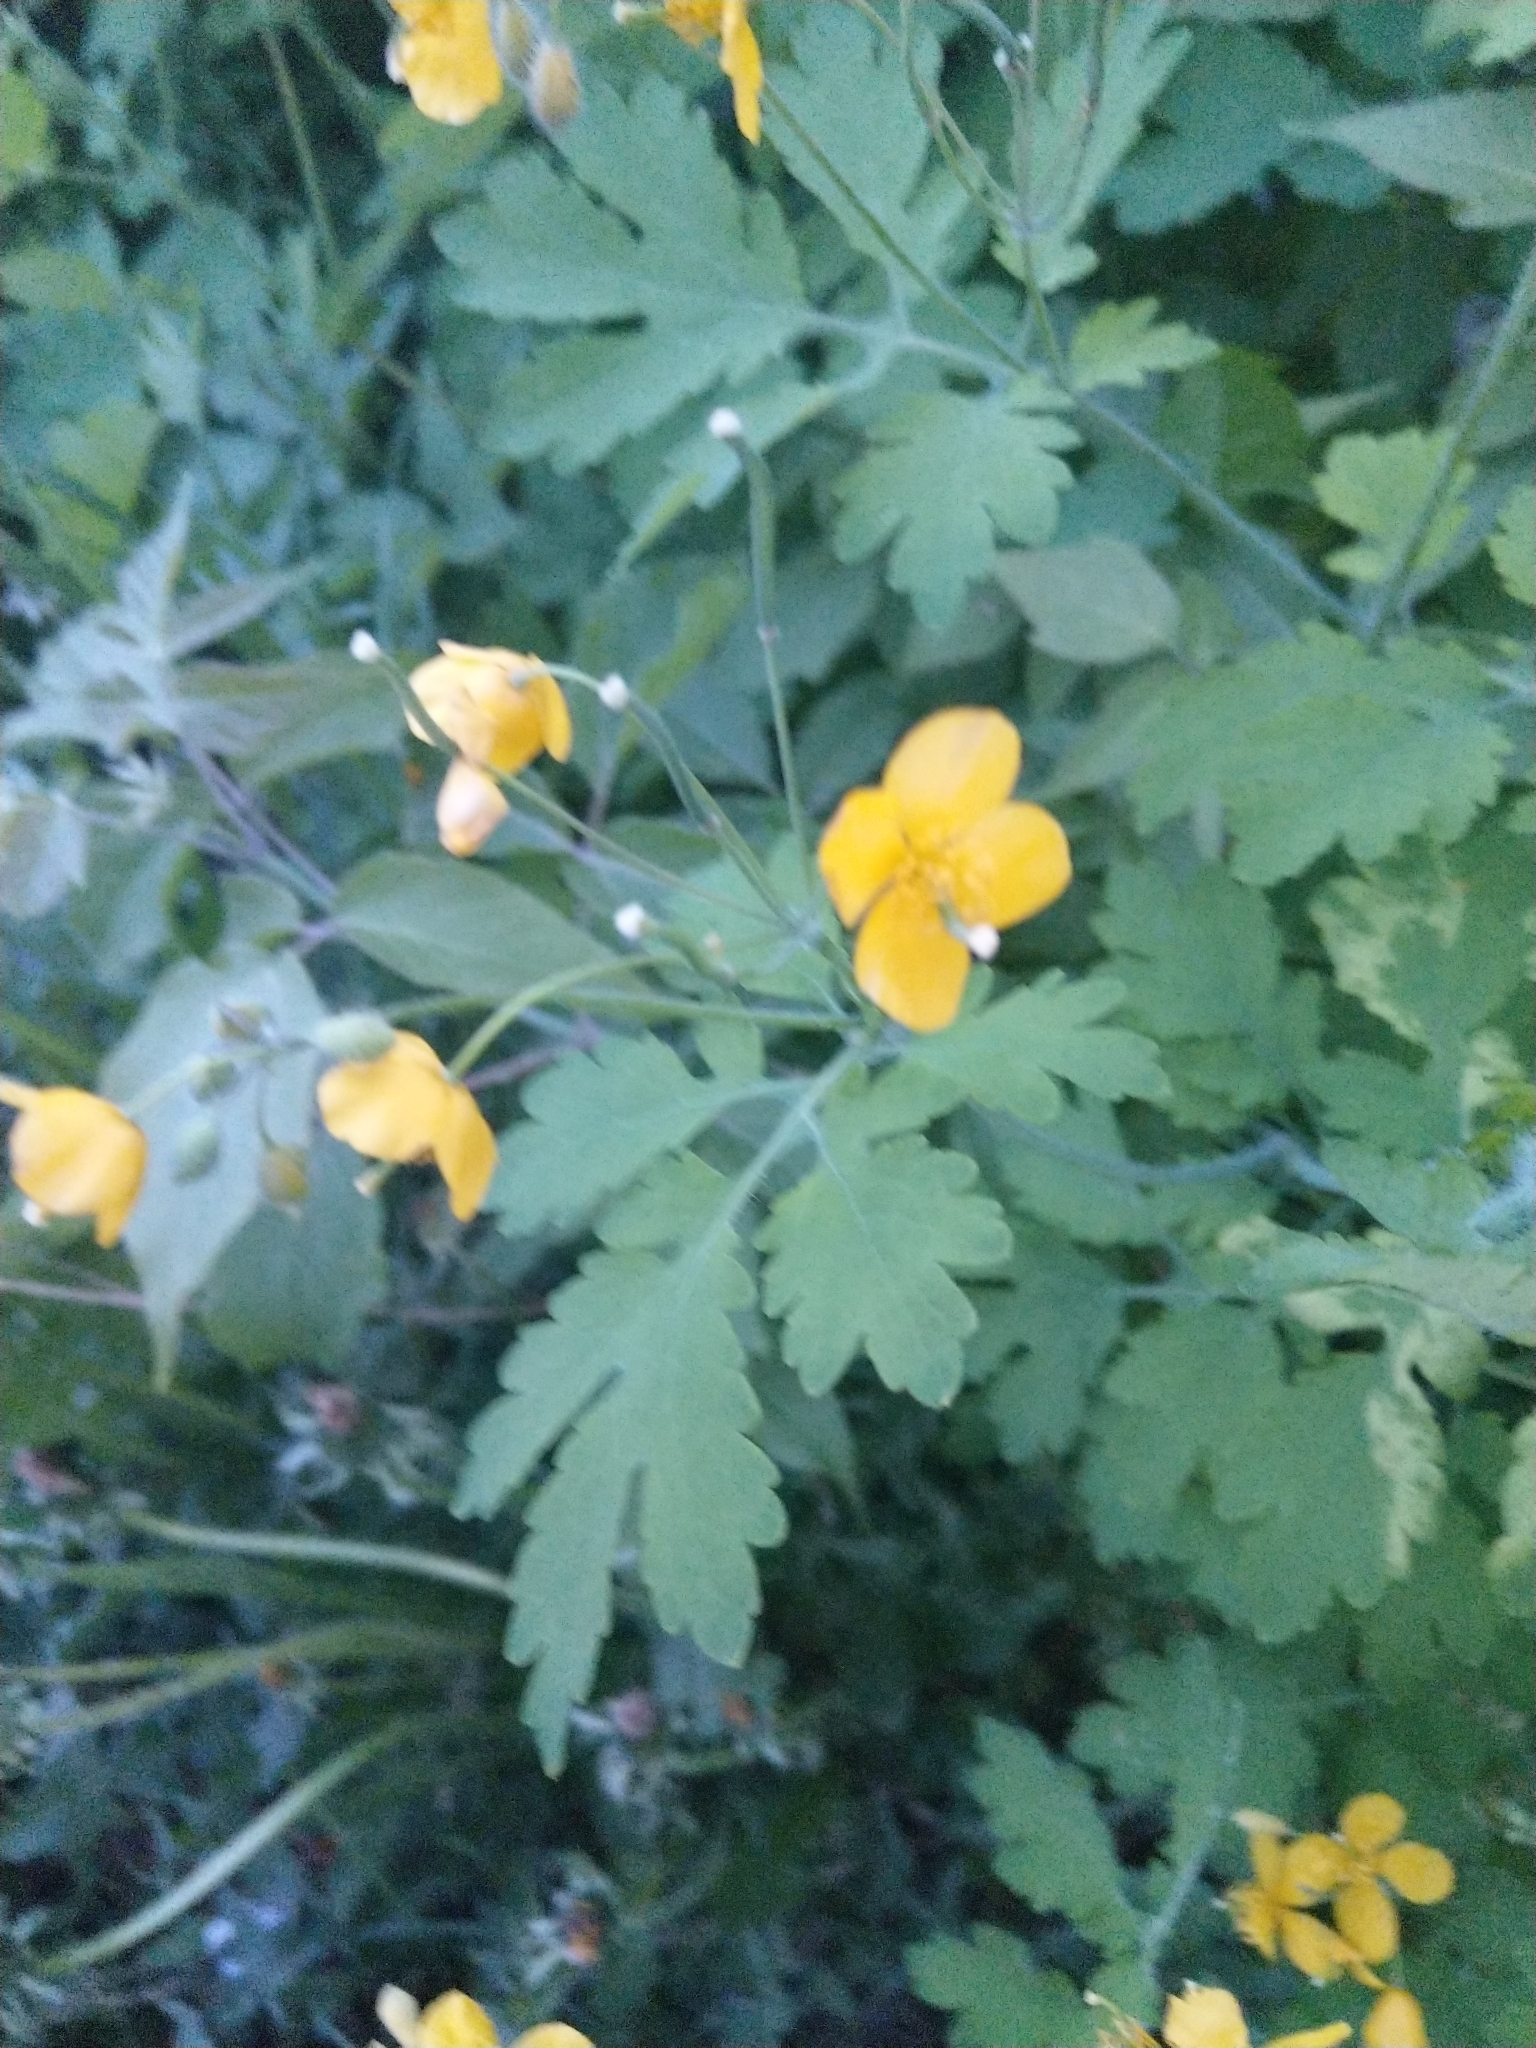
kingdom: Plantae
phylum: Tracheophyta
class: Magnoliopsida
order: Ranunculales
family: Papaveraceae
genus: Chelidonium
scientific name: Chelidonium majus
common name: Greater celandine
